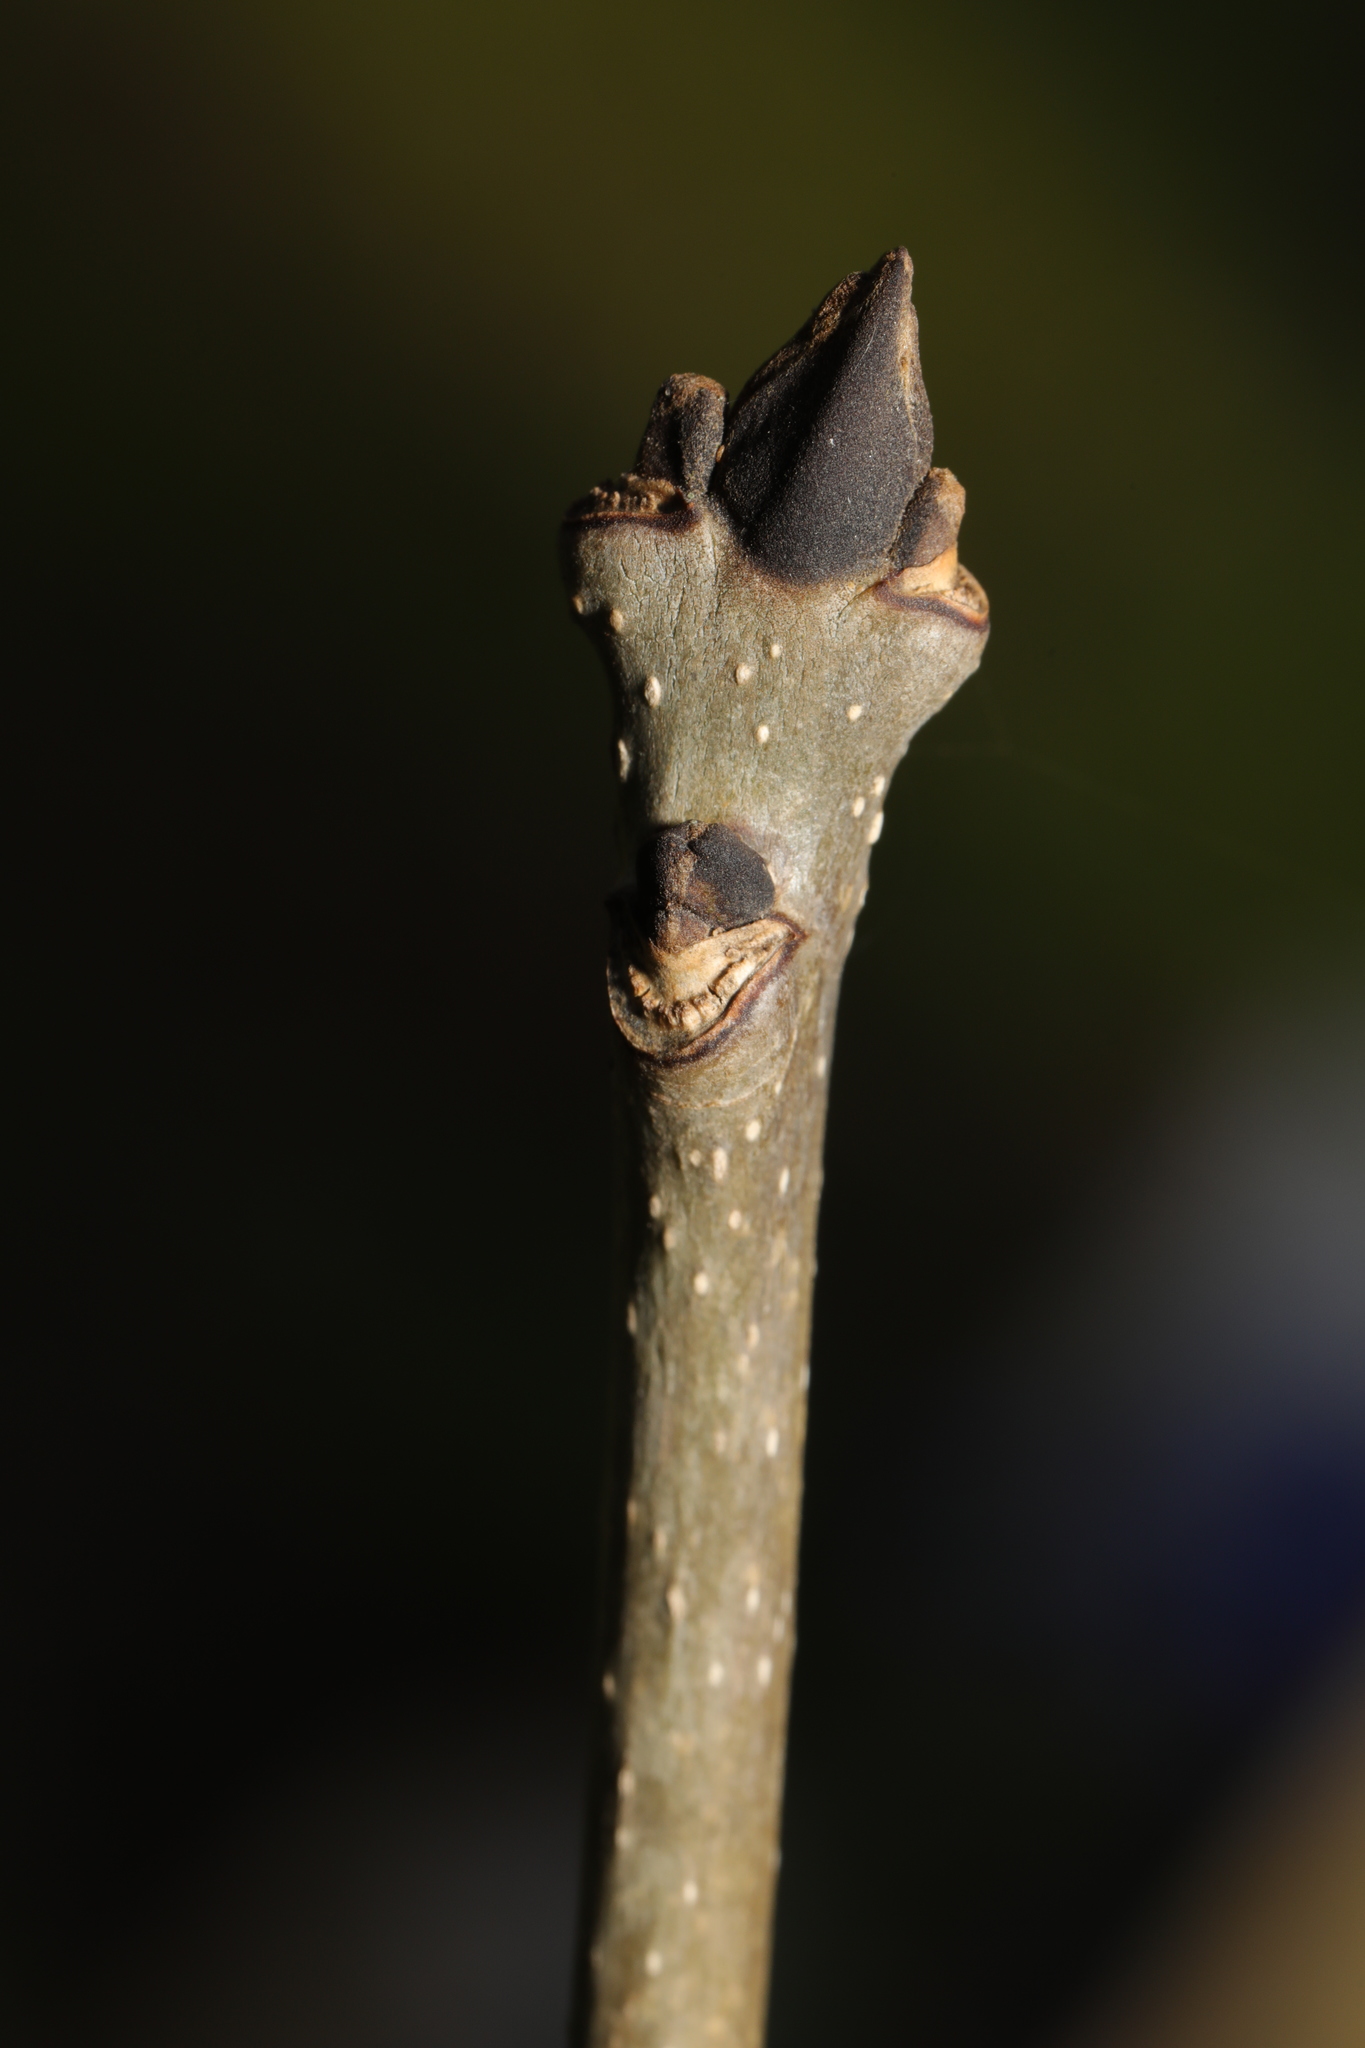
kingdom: Plantae
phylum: Tracheophyta
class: Magnoliopsida
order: Lamiales
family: Oleaceae
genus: Fraxinus
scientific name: Fraxinus excelsior
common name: European ash
